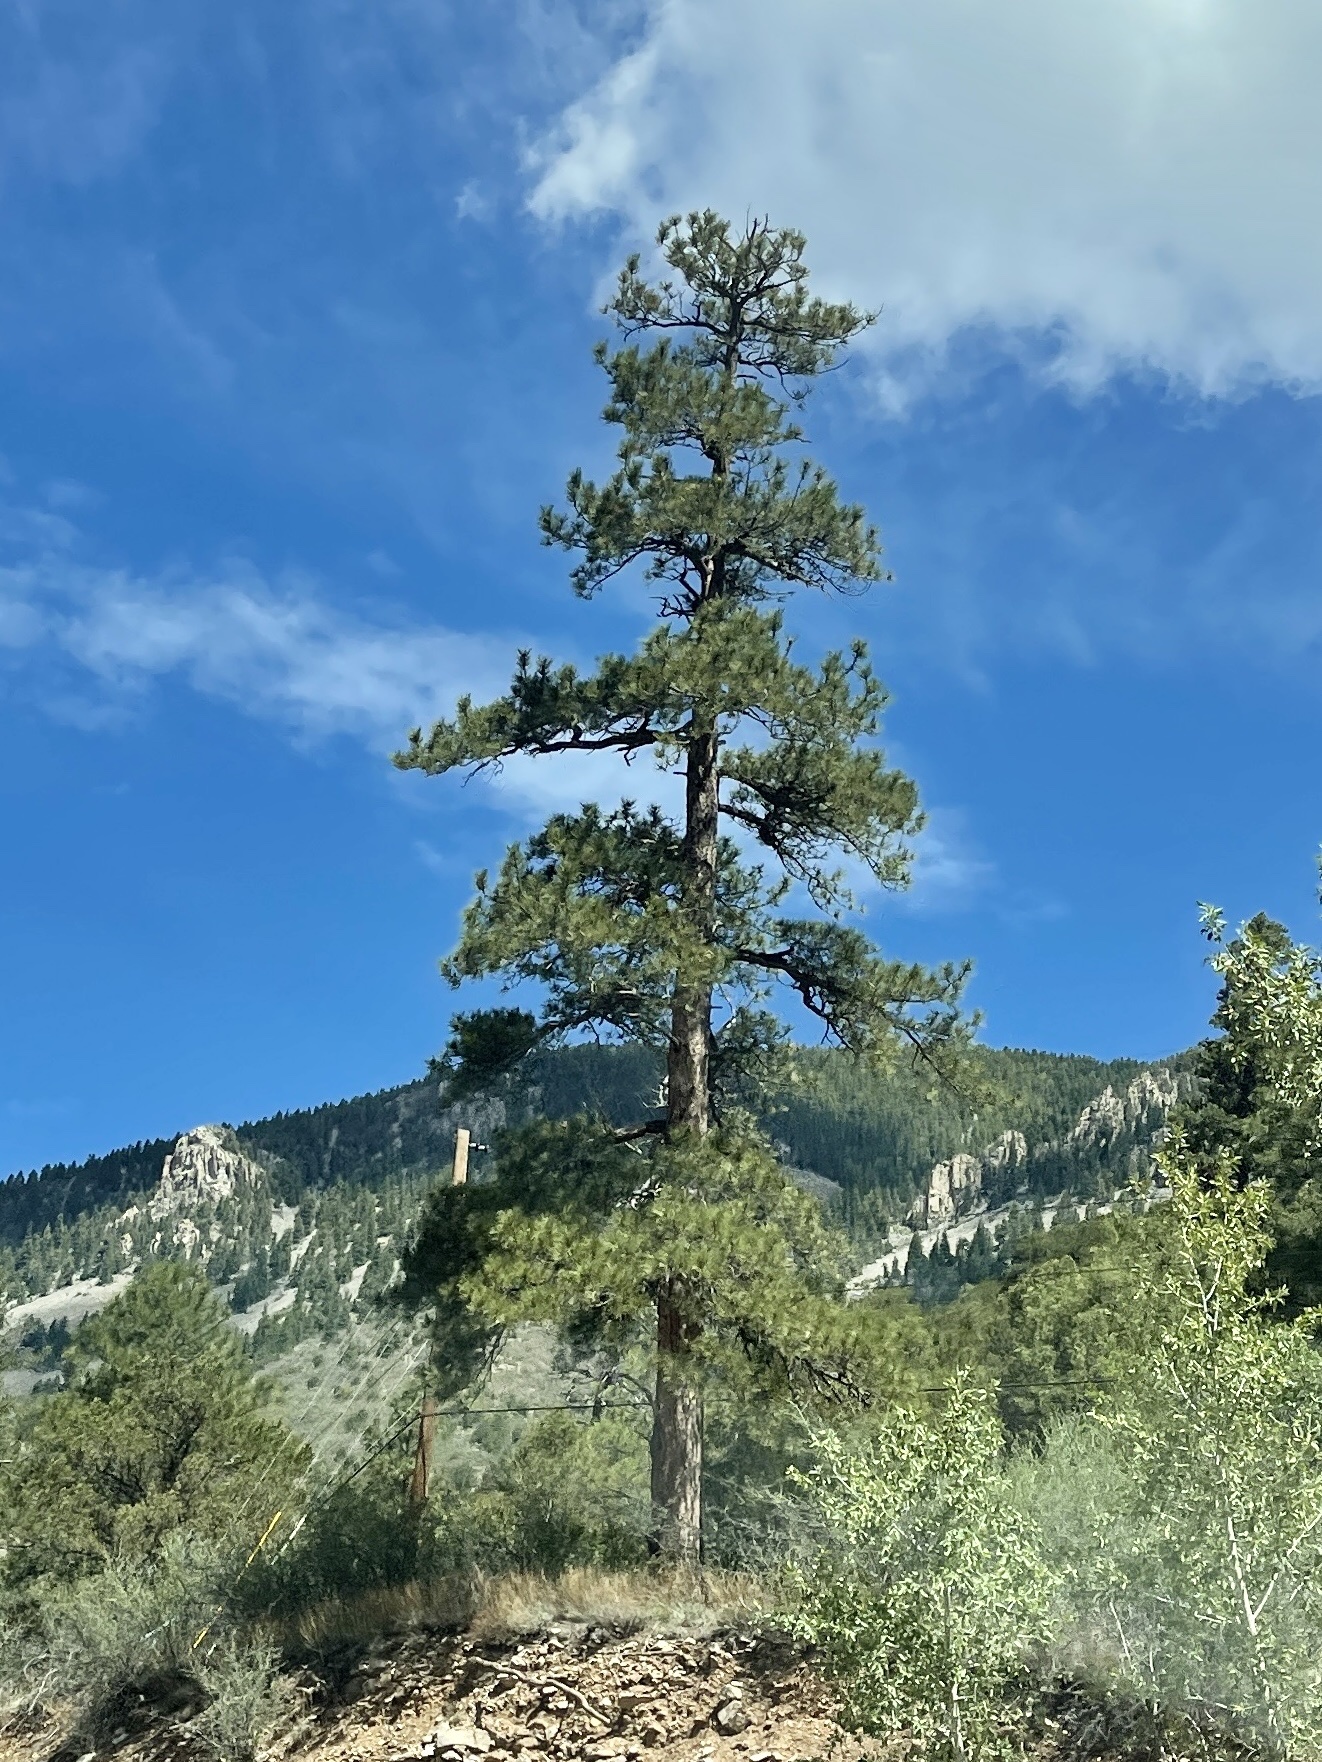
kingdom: Plantae
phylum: Tracheophyta
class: Pinopsida
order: Pinales
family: Pinaceae
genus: Pinus
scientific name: Pinus ponderosa
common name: Western yellow-pine
